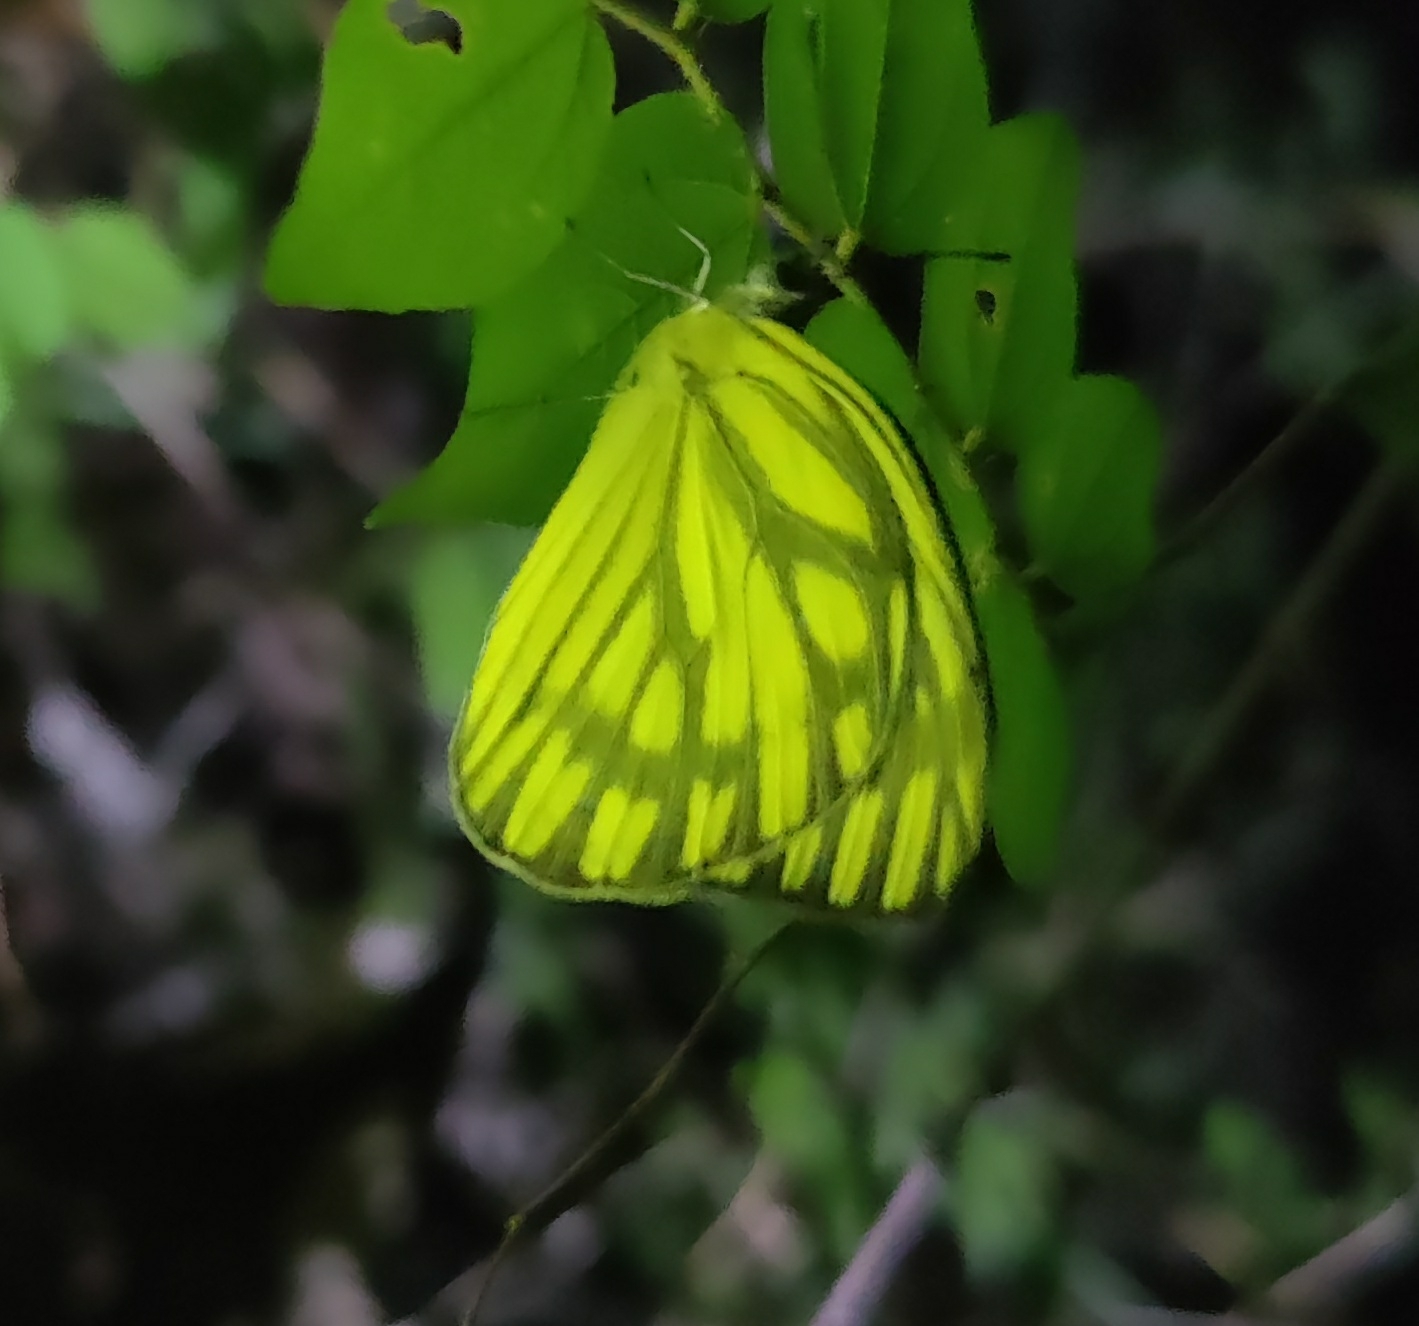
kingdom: Animalia
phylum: Arthropoda
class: Insecta
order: Lepidoptera
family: Pieridae
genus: Cepora
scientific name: Cepora nerissa
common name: Common gull
